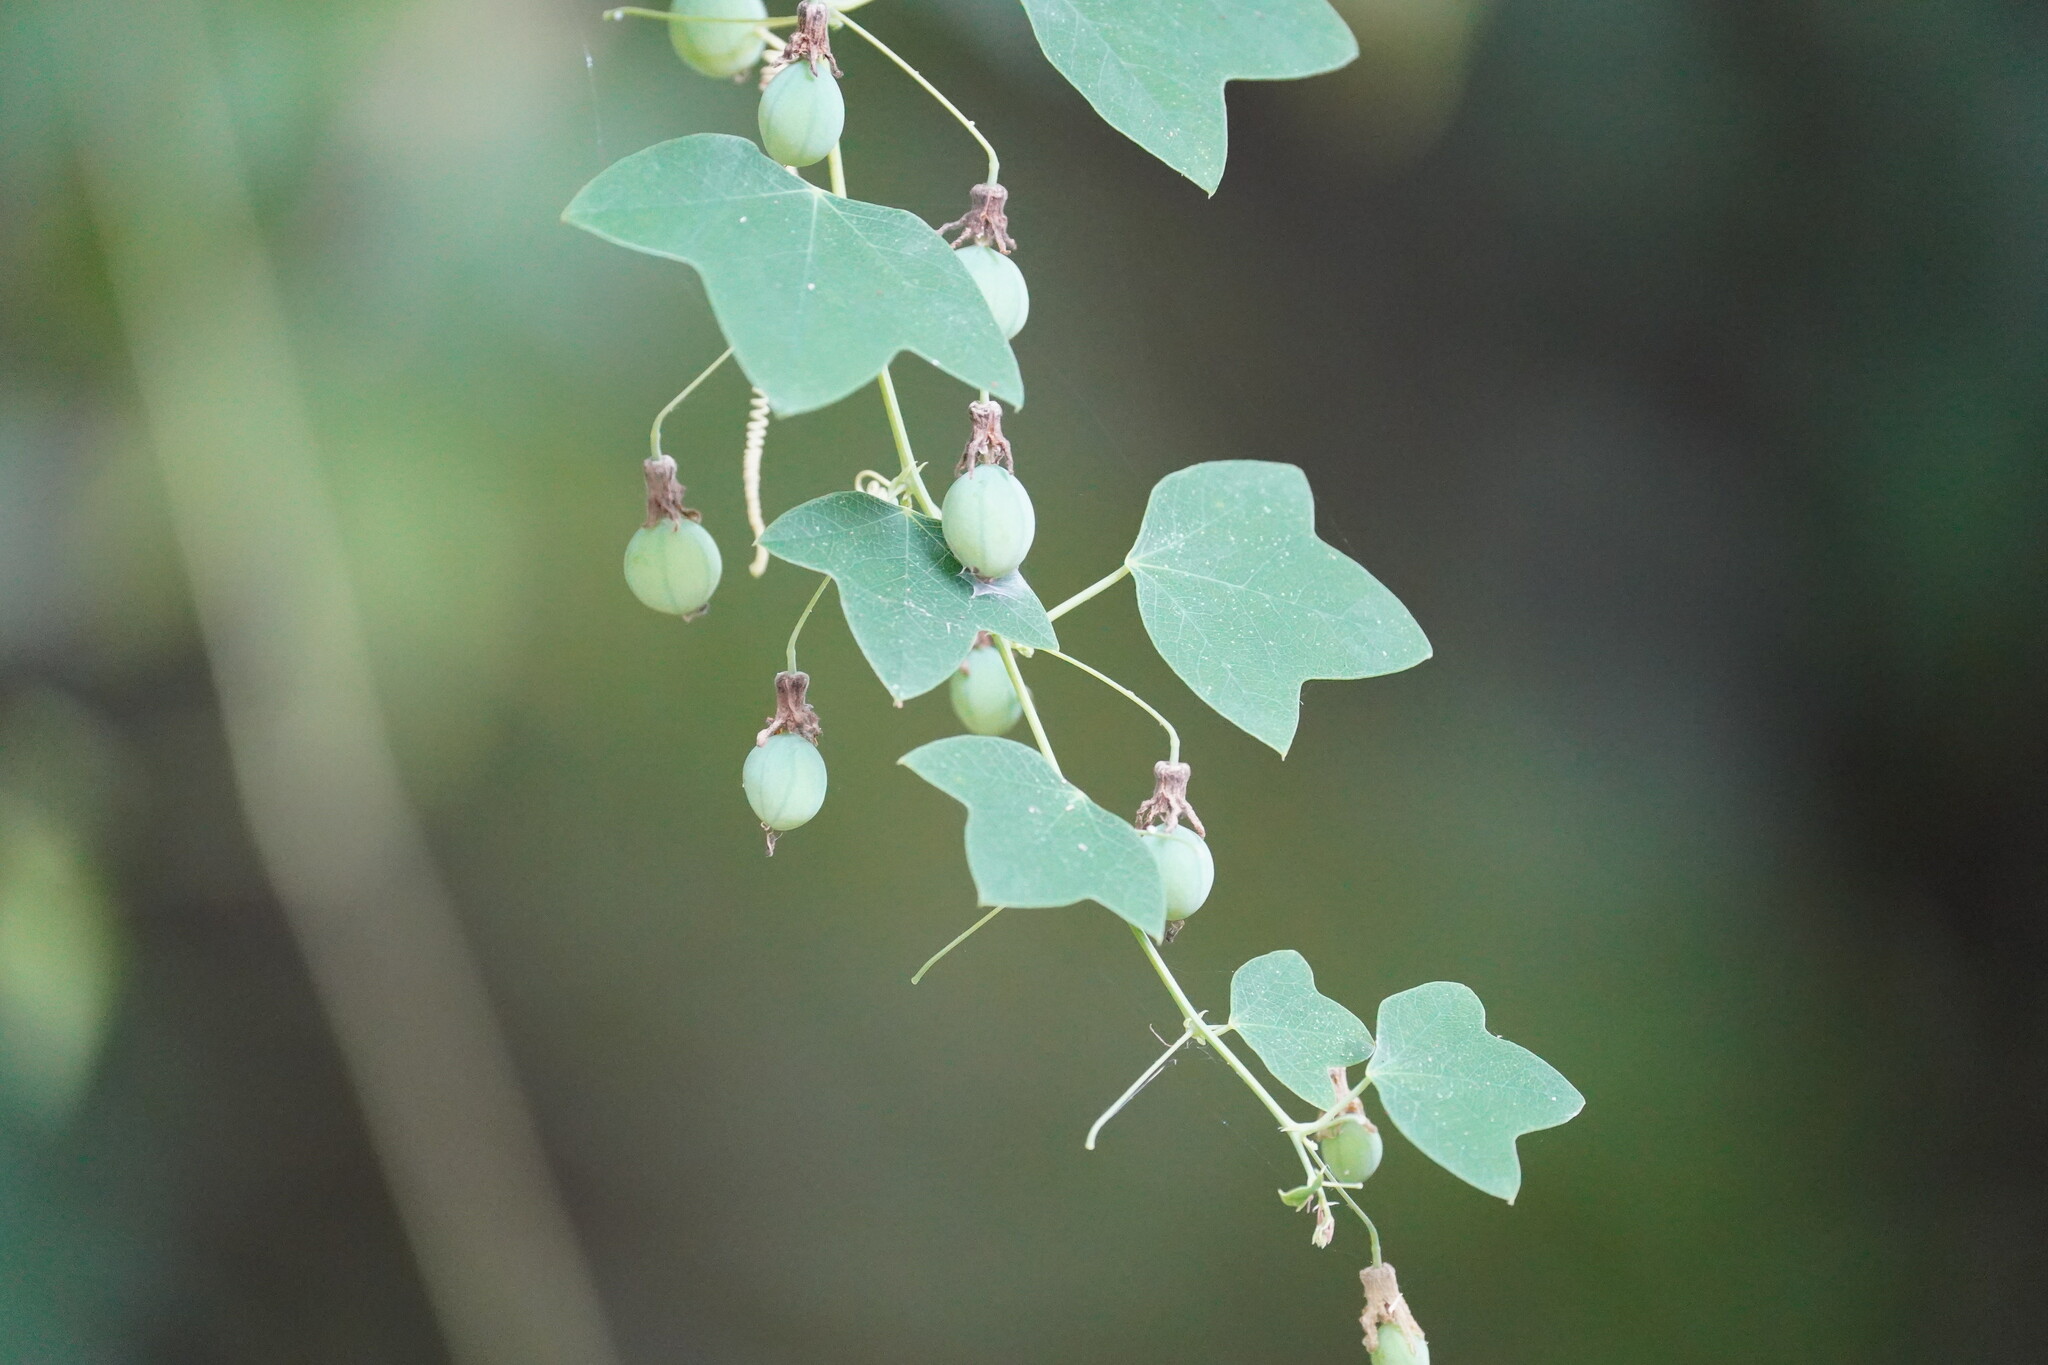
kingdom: Plantae
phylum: Tracheophyta
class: Magnoliopsida
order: Malpighiales
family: Passifloraceae
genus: Passiflora
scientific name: Passiflora lutea
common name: Yellow passionflower
